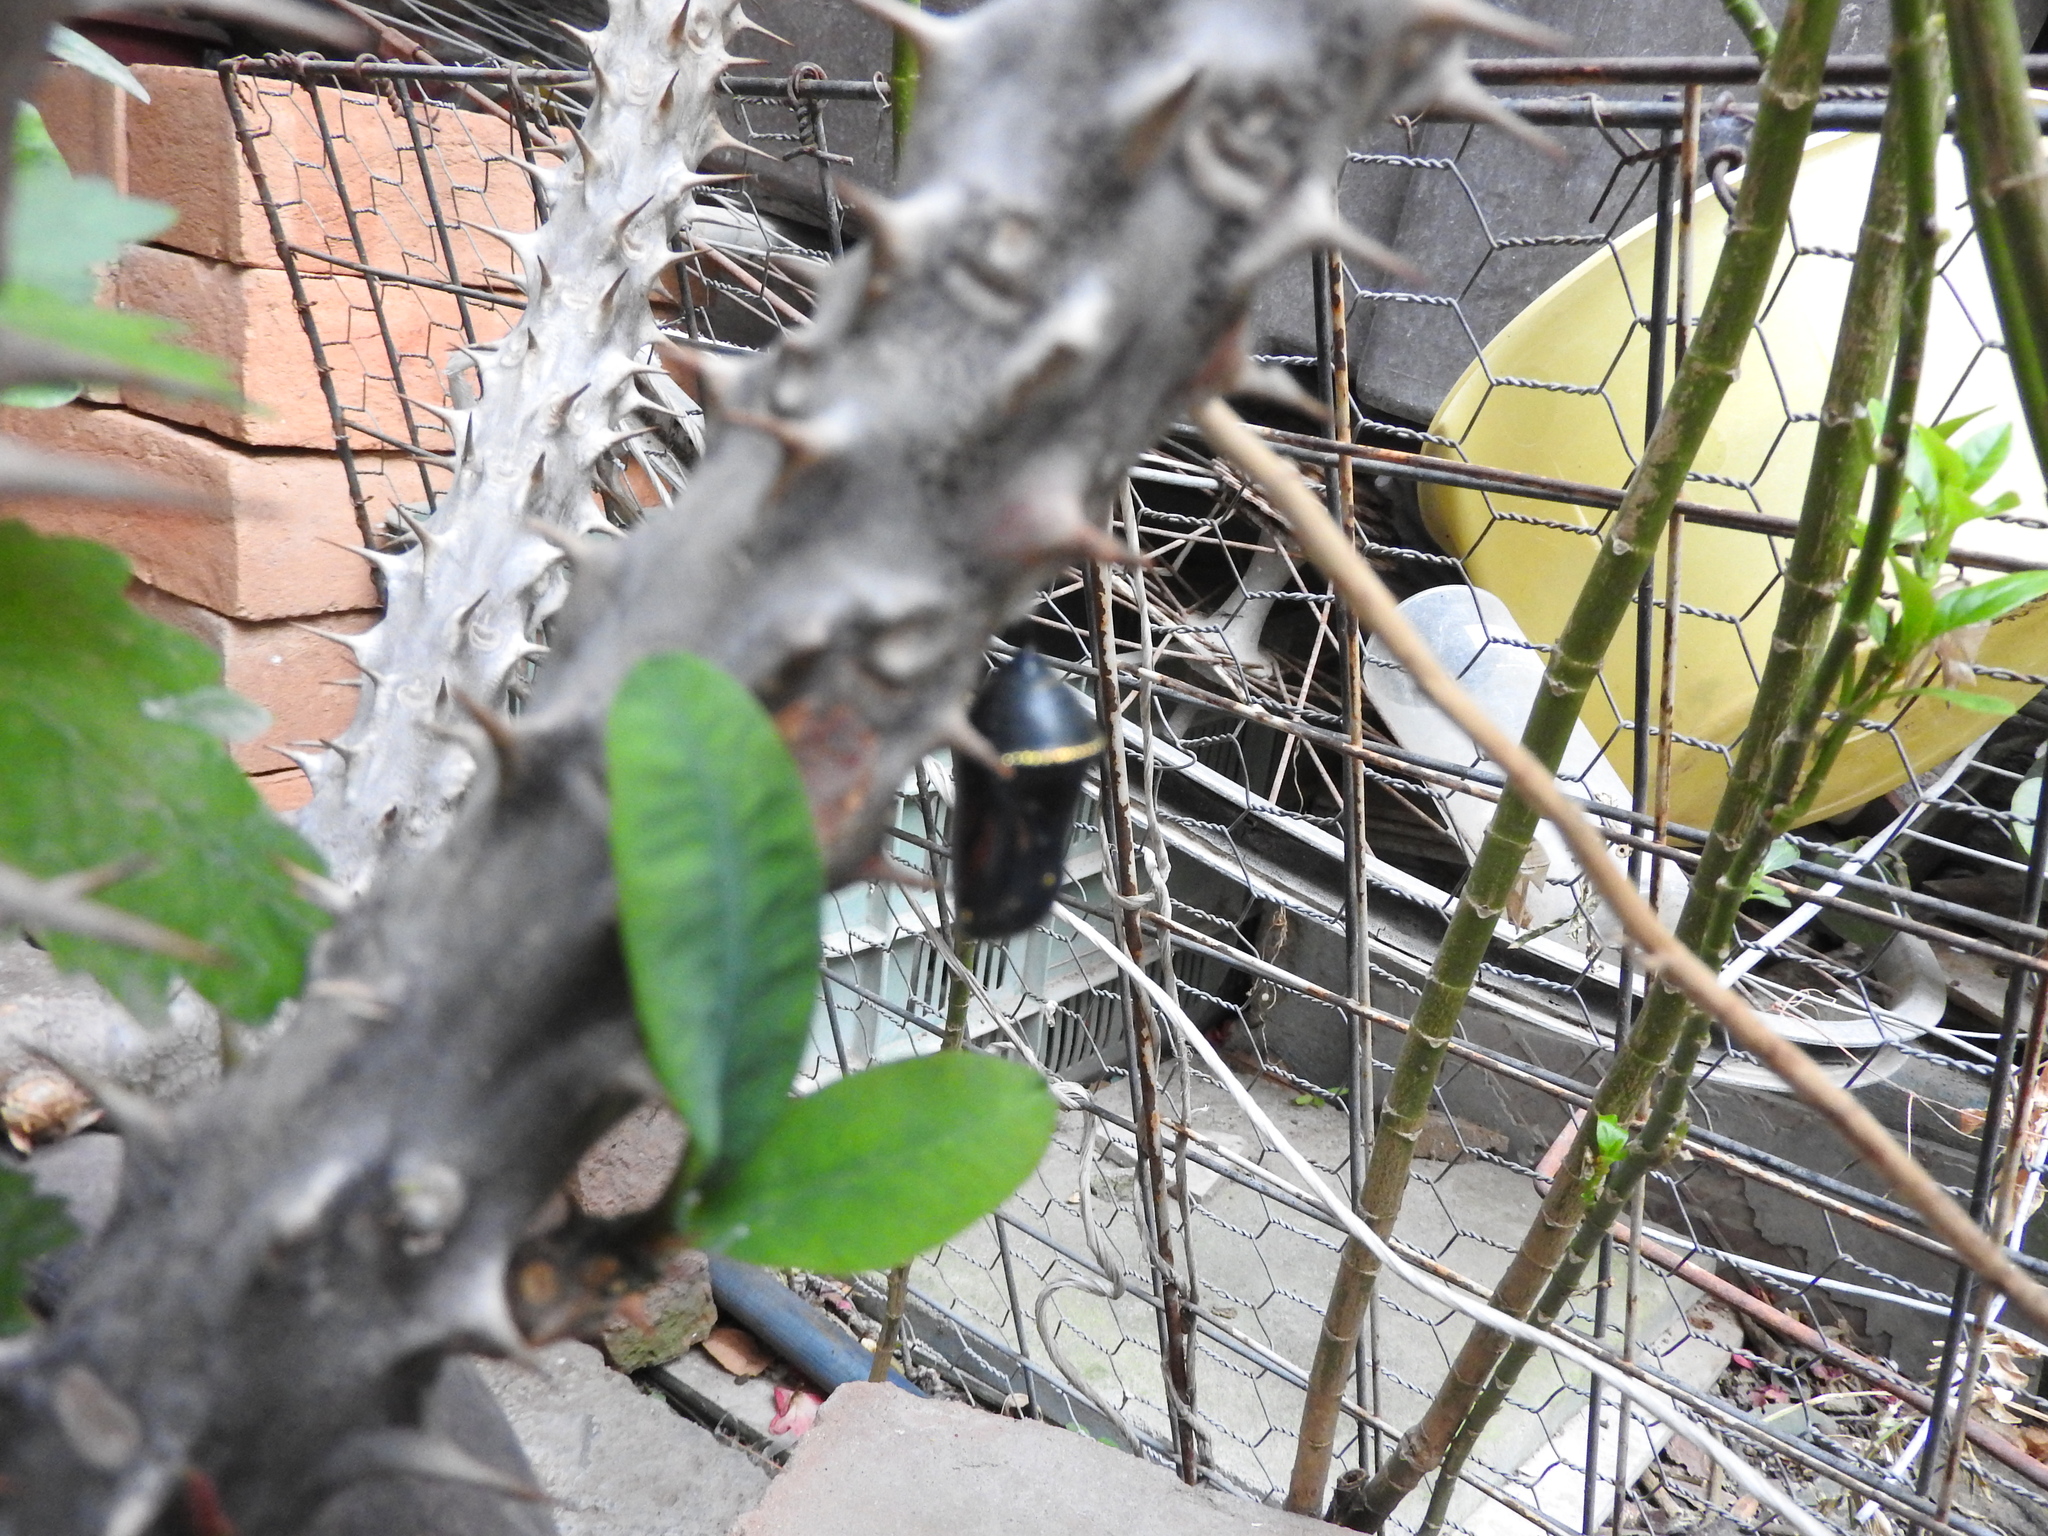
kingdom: Animalia
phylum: Arthropoda
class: Insecta
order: Lepidoptera
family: Nymphalidae
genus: Danaus
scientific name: Danaus plexippus
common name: Monarch
